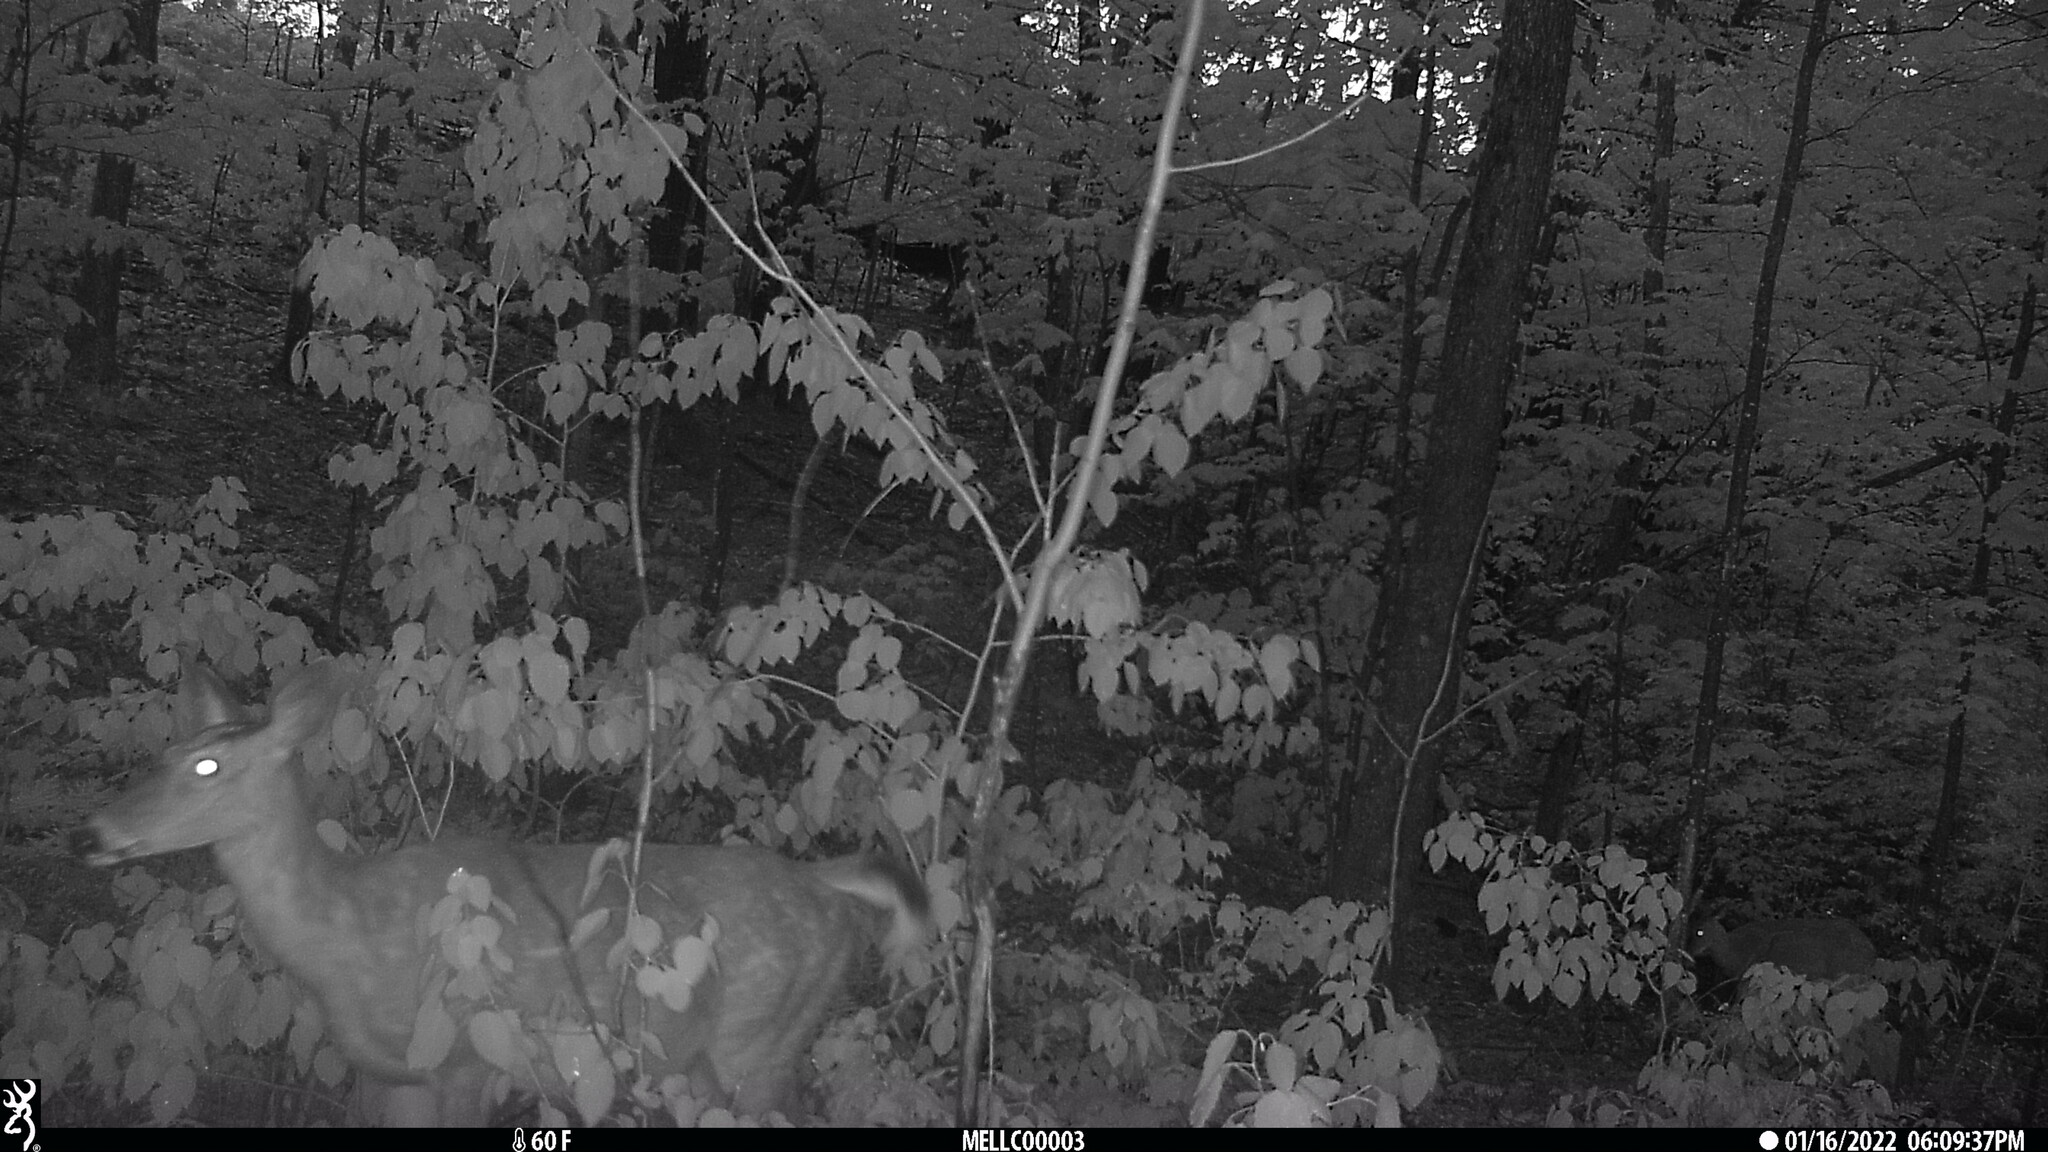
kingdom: Animalia
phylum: Chordata
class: Mammalia
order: Artiodactyla
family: Cervidae
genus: Odocoileus
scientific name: Odocoileus virginianus
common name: White-tailed deer
